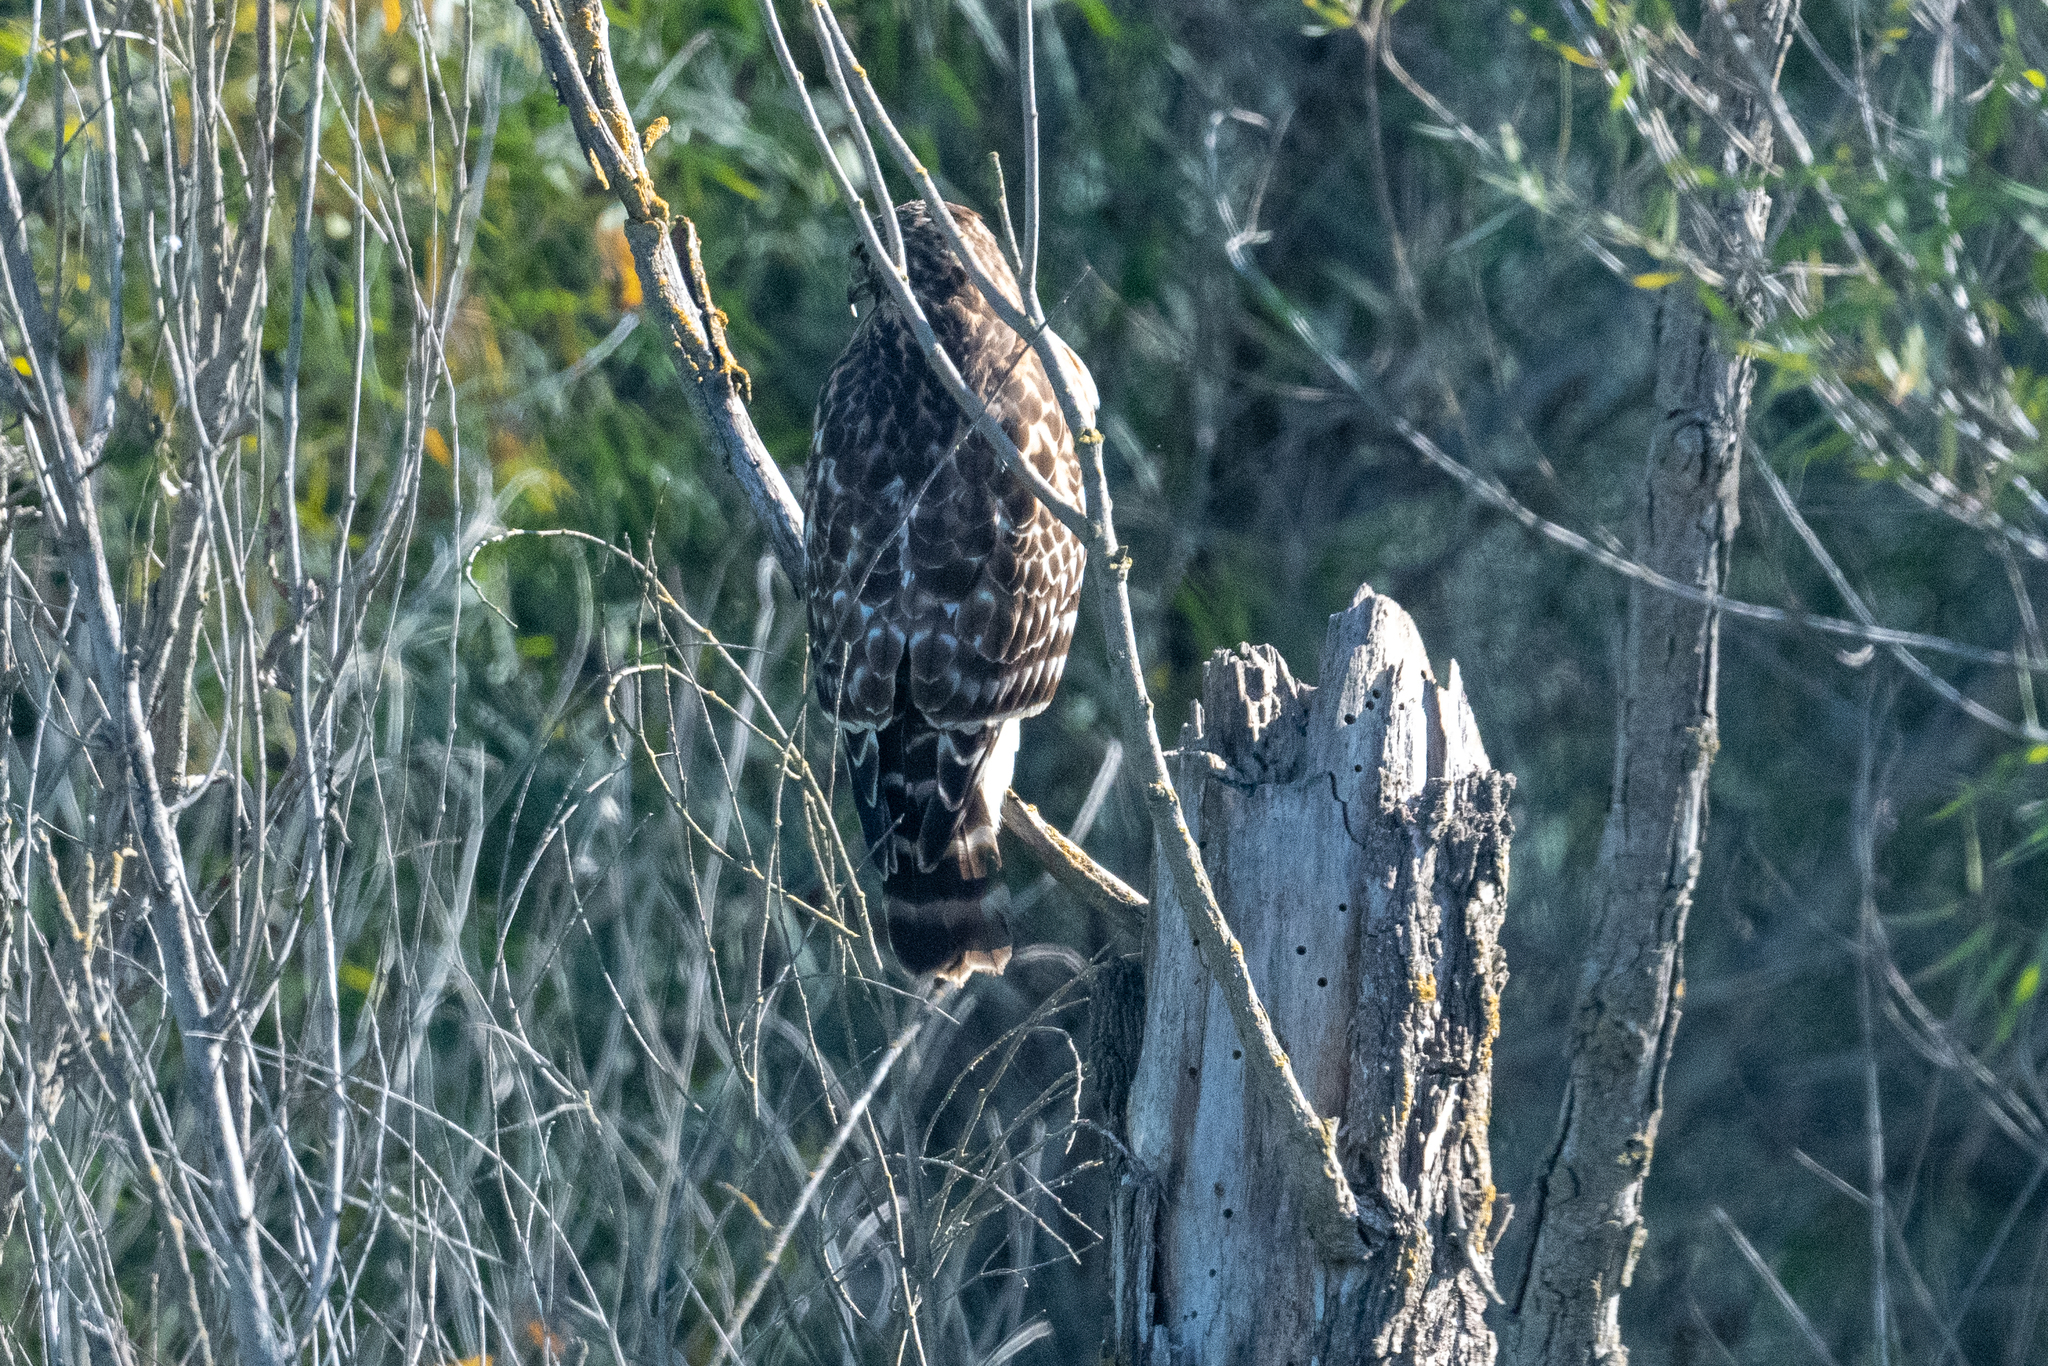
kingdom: Animalia
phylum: Chordata
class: Aves
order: Accipitriformes
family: Accipitridae
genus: Buteo
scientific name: Buteo lineatus
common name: Red-shouldered hawk
